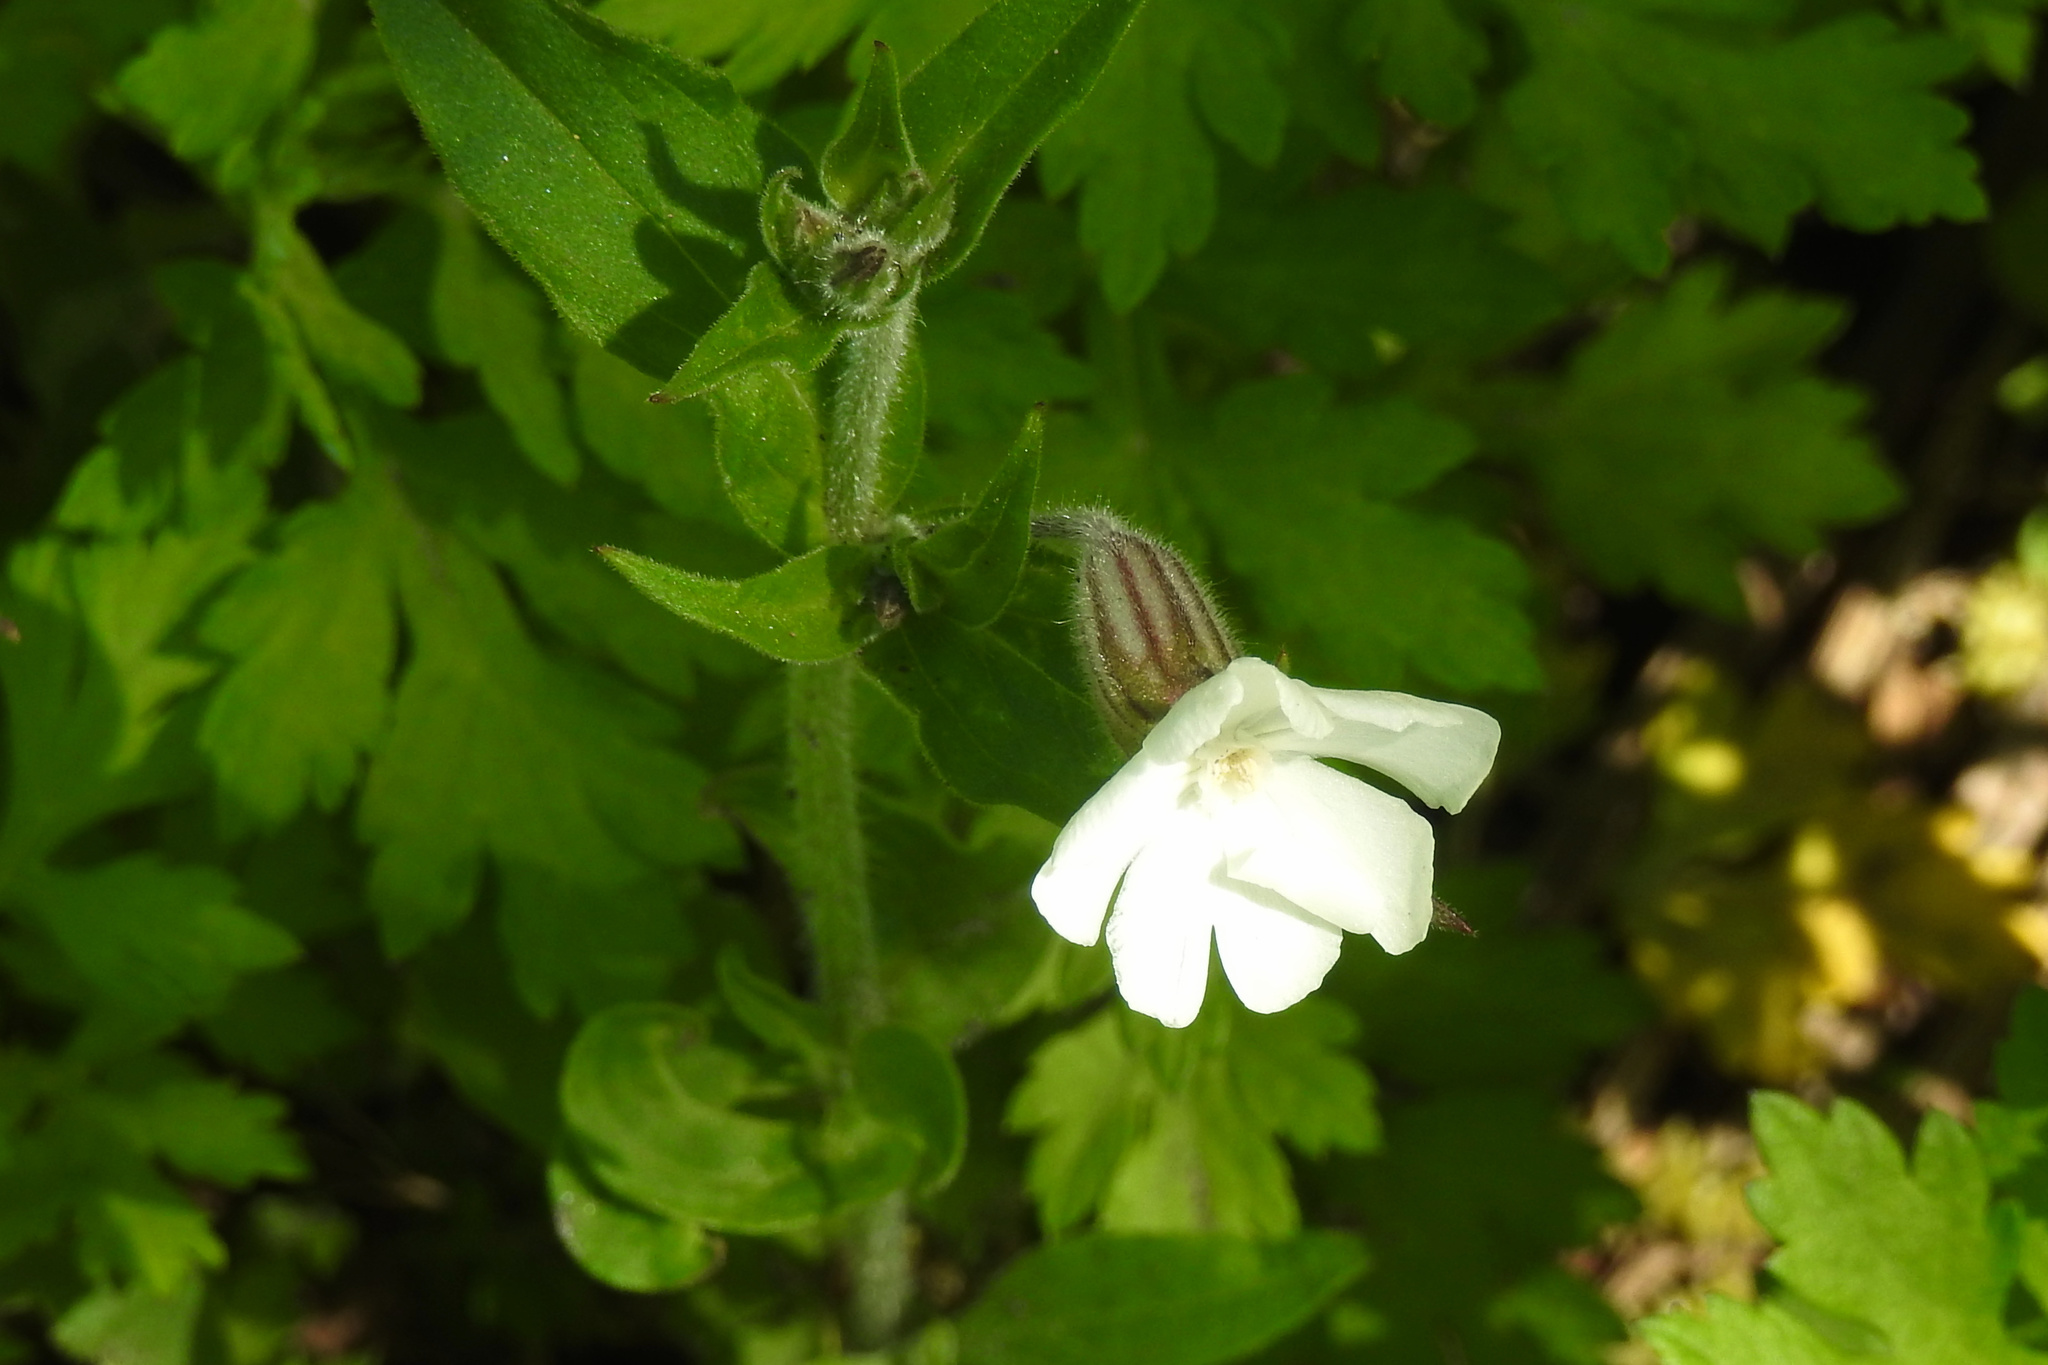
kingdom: Plantae
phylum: Tracheophyta
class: Magnoliopsida
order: Caryophyllales
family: Caryophyllaceae
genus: Silene
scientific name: Silene latifolia
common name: White campion
